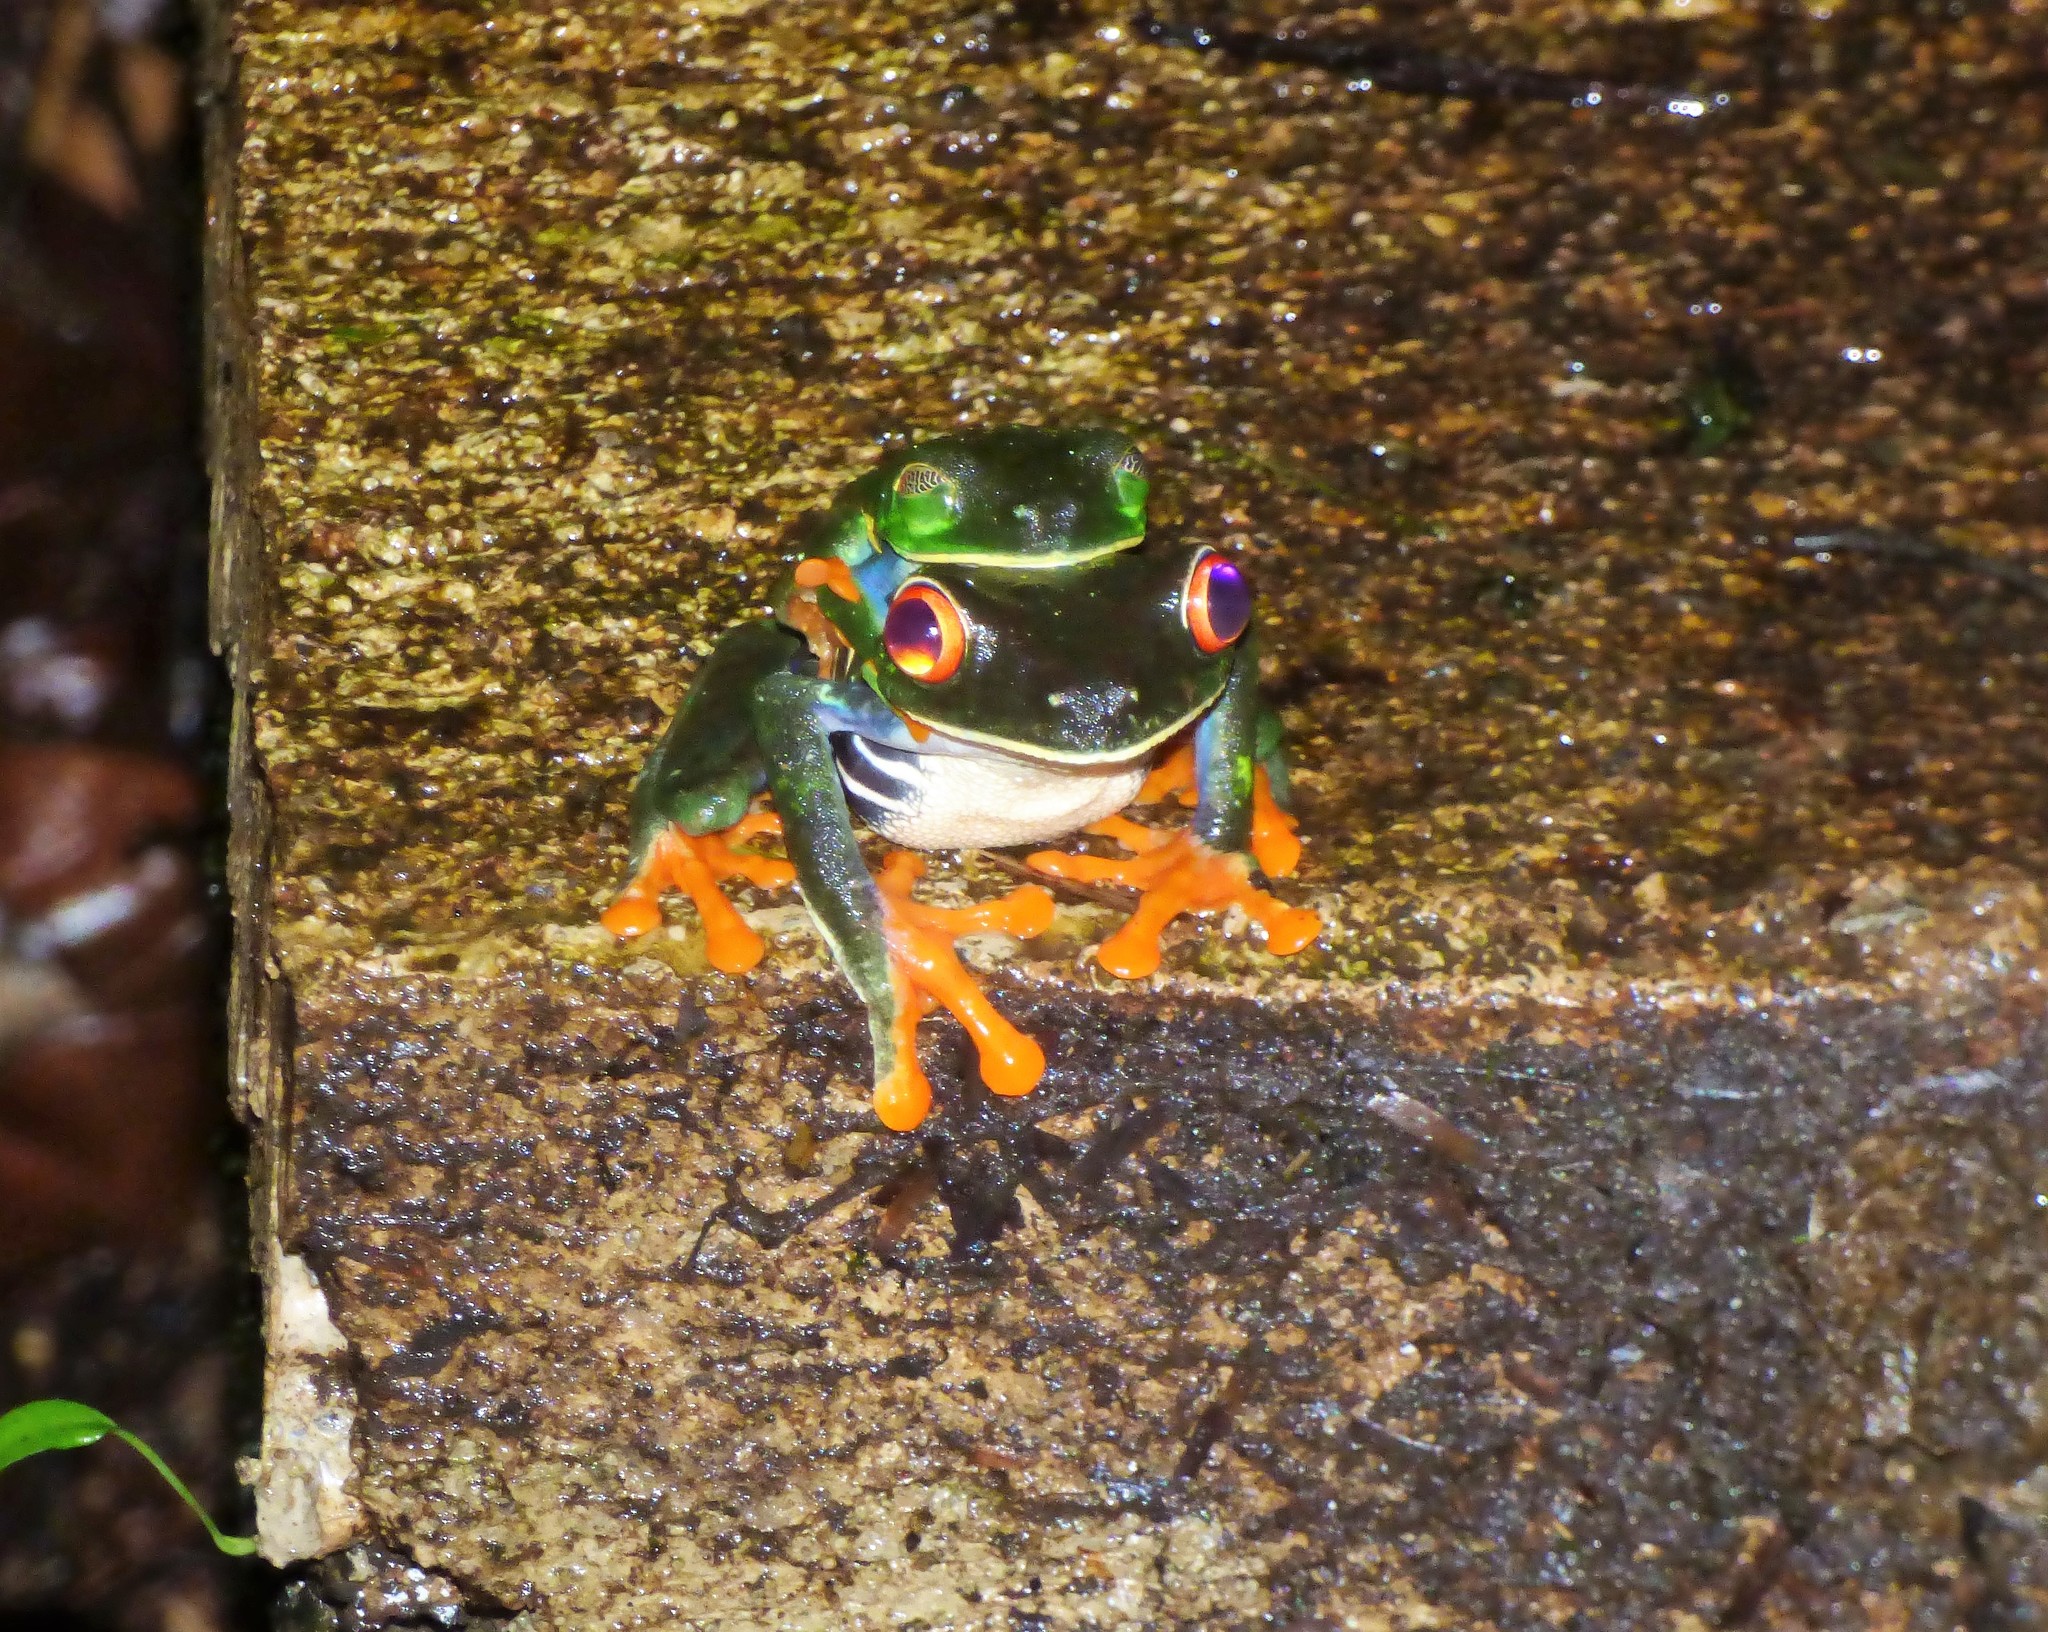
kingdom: Animalia
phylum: Chordata
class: Amphibia
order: Anura
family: Phyllomedusidae
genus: Agalychnis
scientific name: Agalychnis callidryas
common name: Red-eyed treefrog
